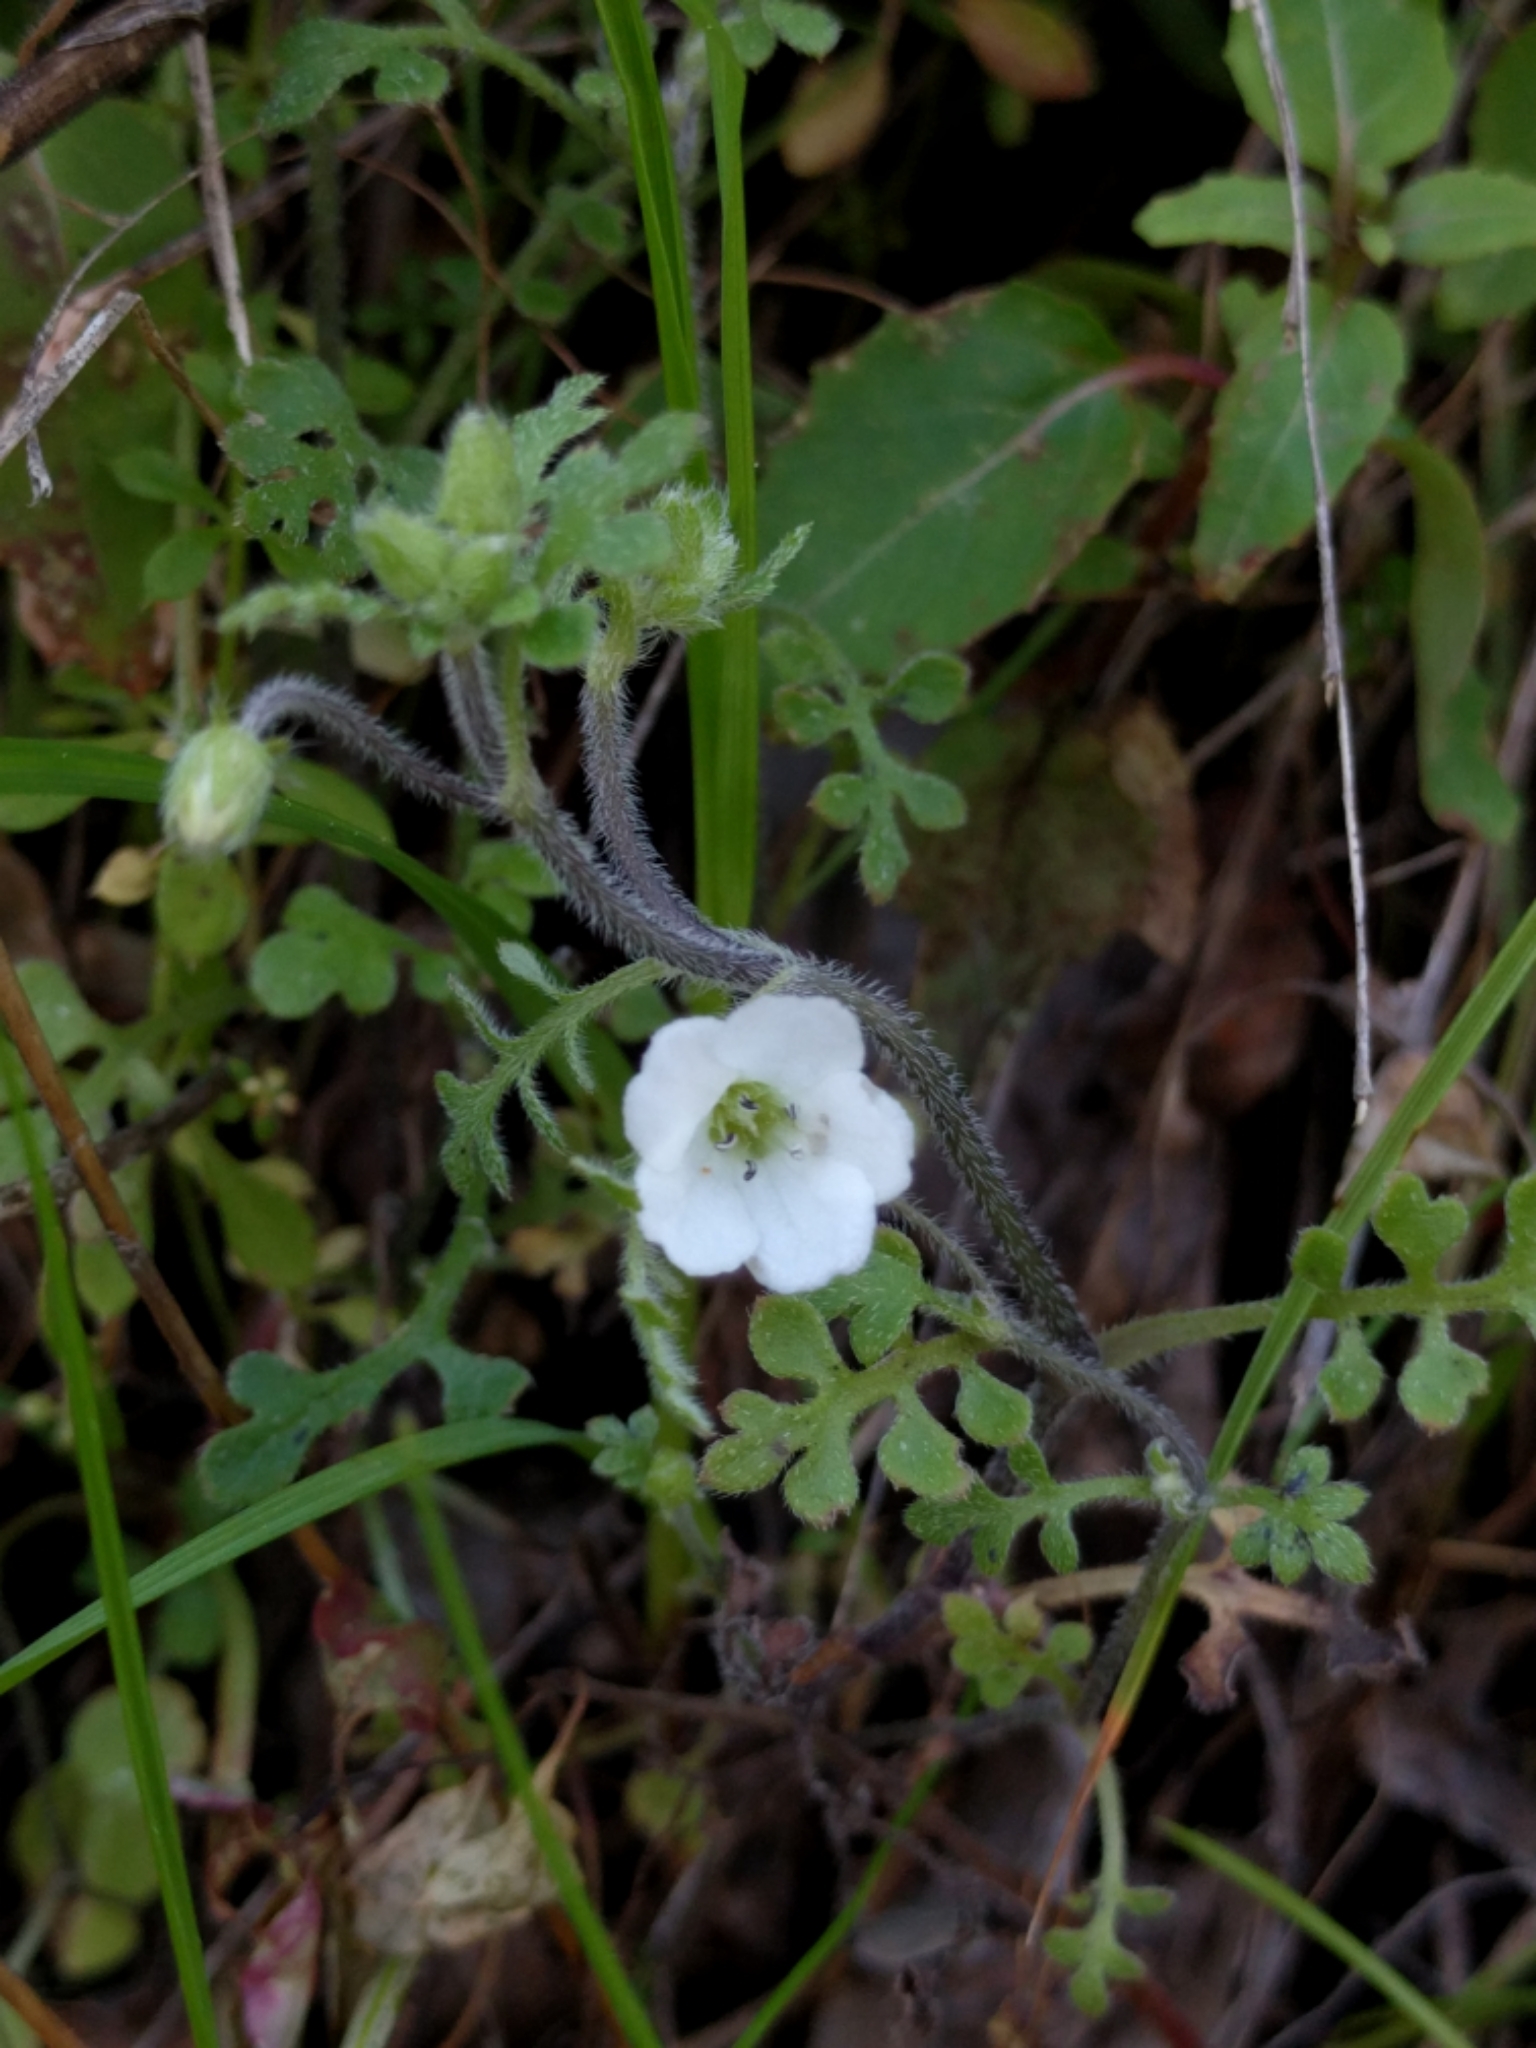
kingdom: Plantae
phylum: Tracheophyta
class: Magnoliopsida
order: Boraginales
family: Hydrophyllaceae
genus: Nemophila
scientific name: Nemophila heterophylla
